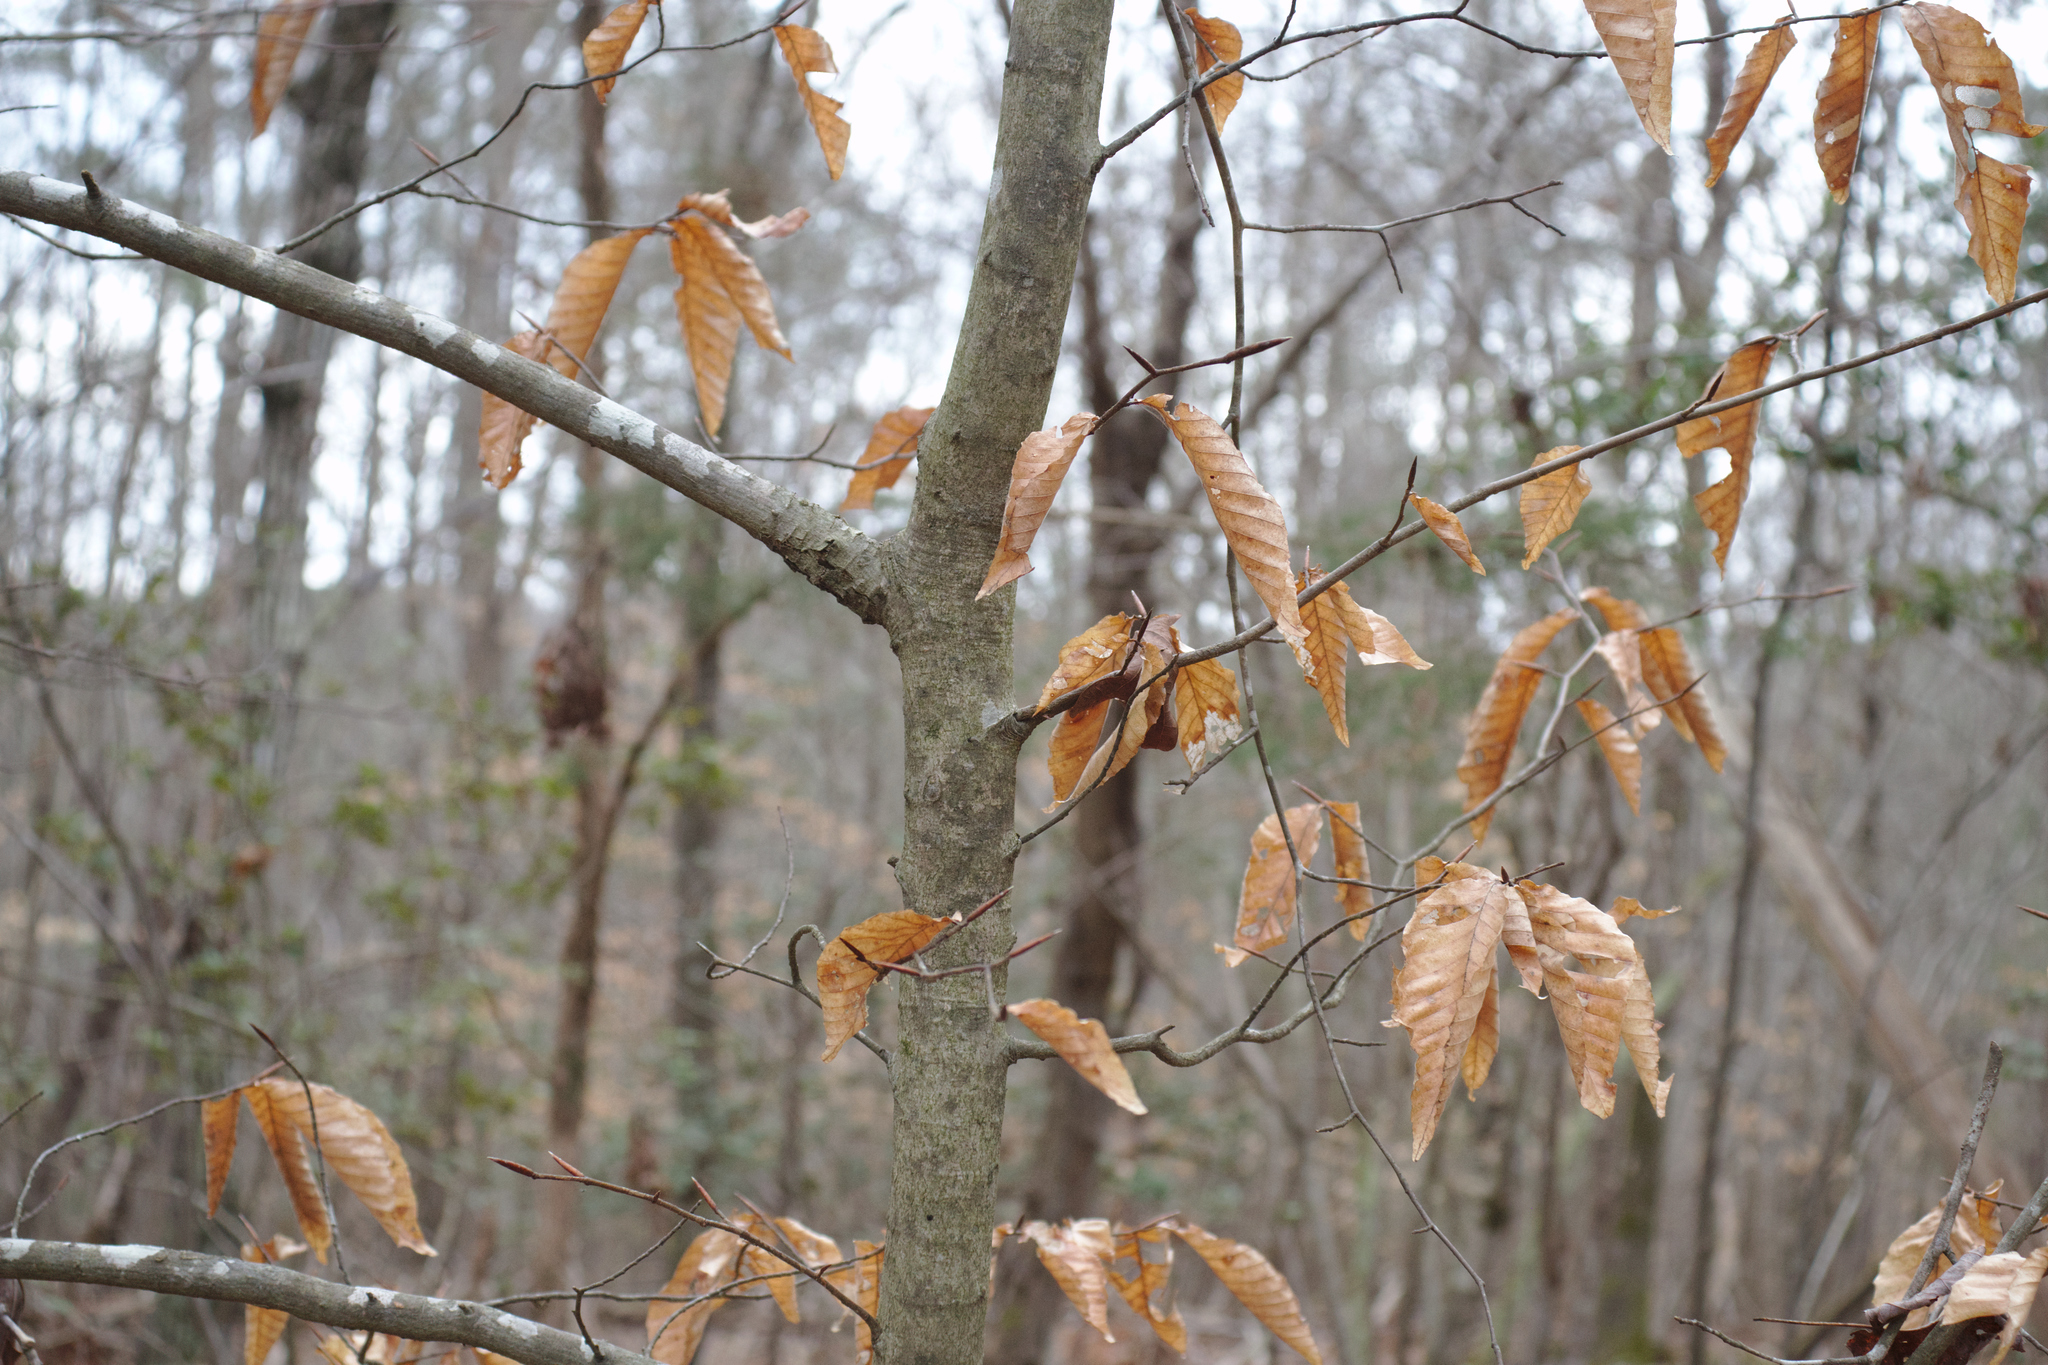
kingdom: Plantae
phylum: Tracheophyta
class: Magnoliopsida
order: Fagales
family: Fagaceae
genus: Fagus
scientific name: Fagus grandifolia
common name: American beech
